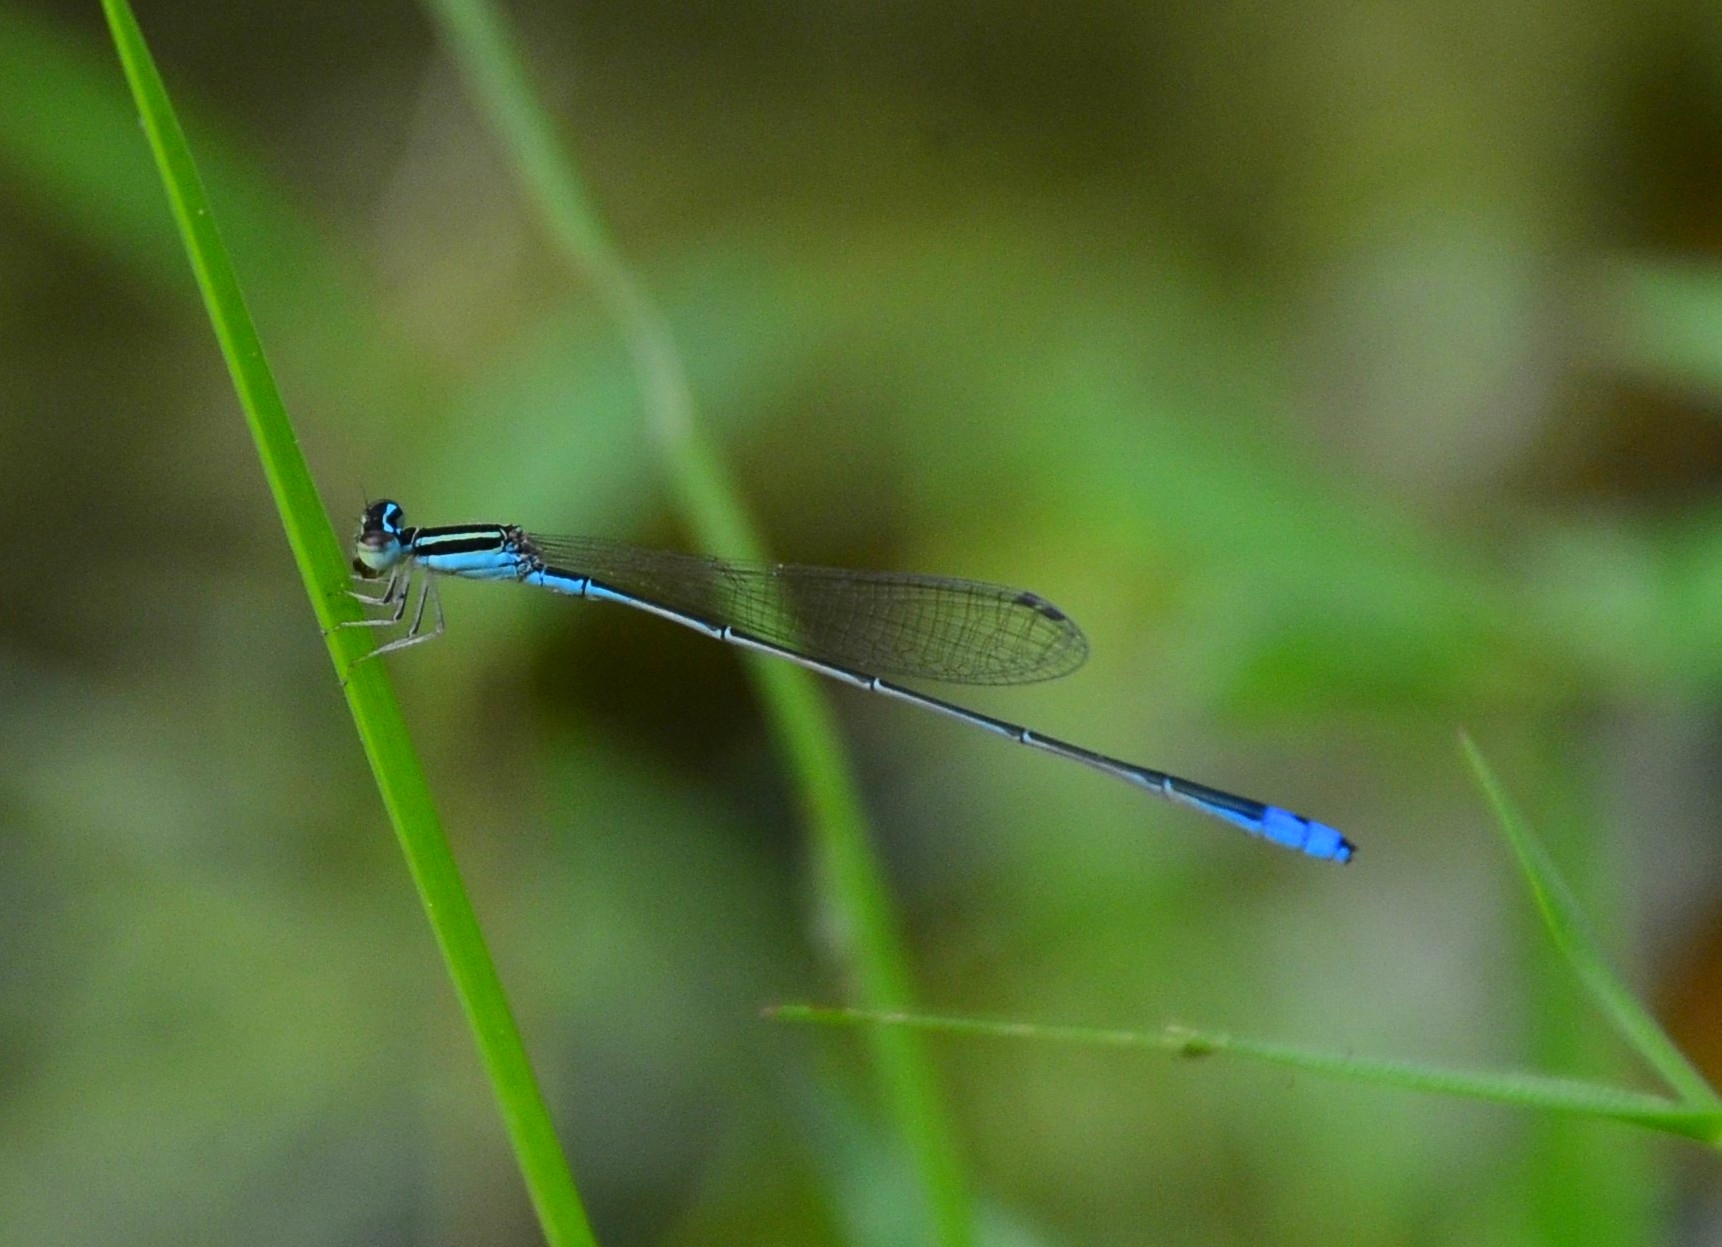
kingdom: Animalia
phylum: Arthropoda
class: Insecta
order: Odonata
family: Coenagrionidae
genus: Aciagrion
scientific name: Aciagrion occidentale
